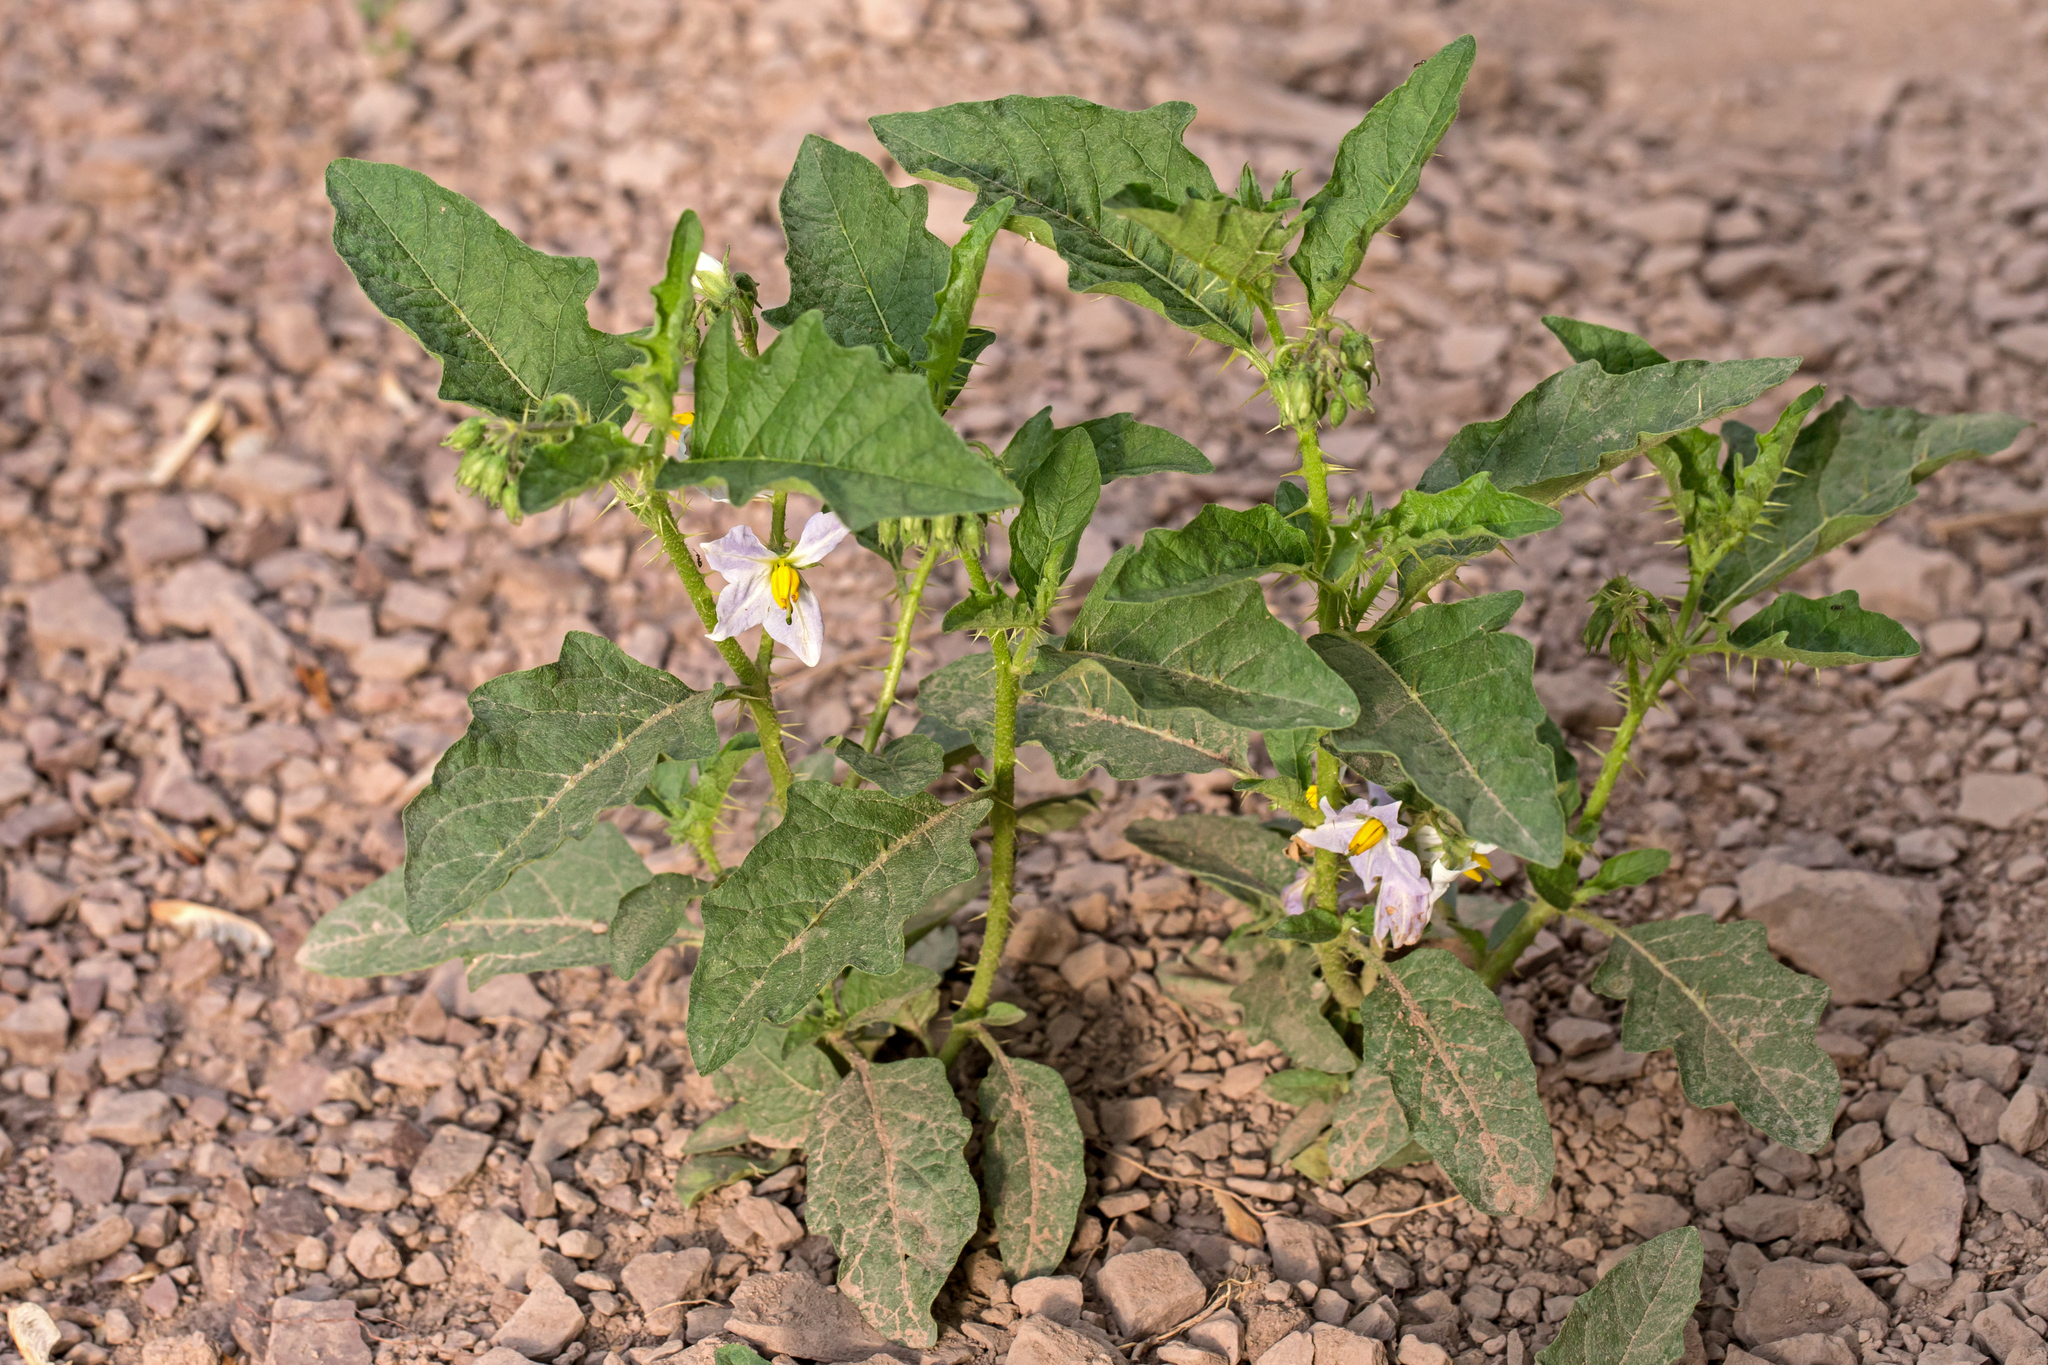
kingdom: Plantae
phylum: Tracheophyta
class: Magnoliopsida
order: Solanales
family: Solanaceae
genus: Solanum
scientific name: Solanum carolinense
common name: Horse-nettle
